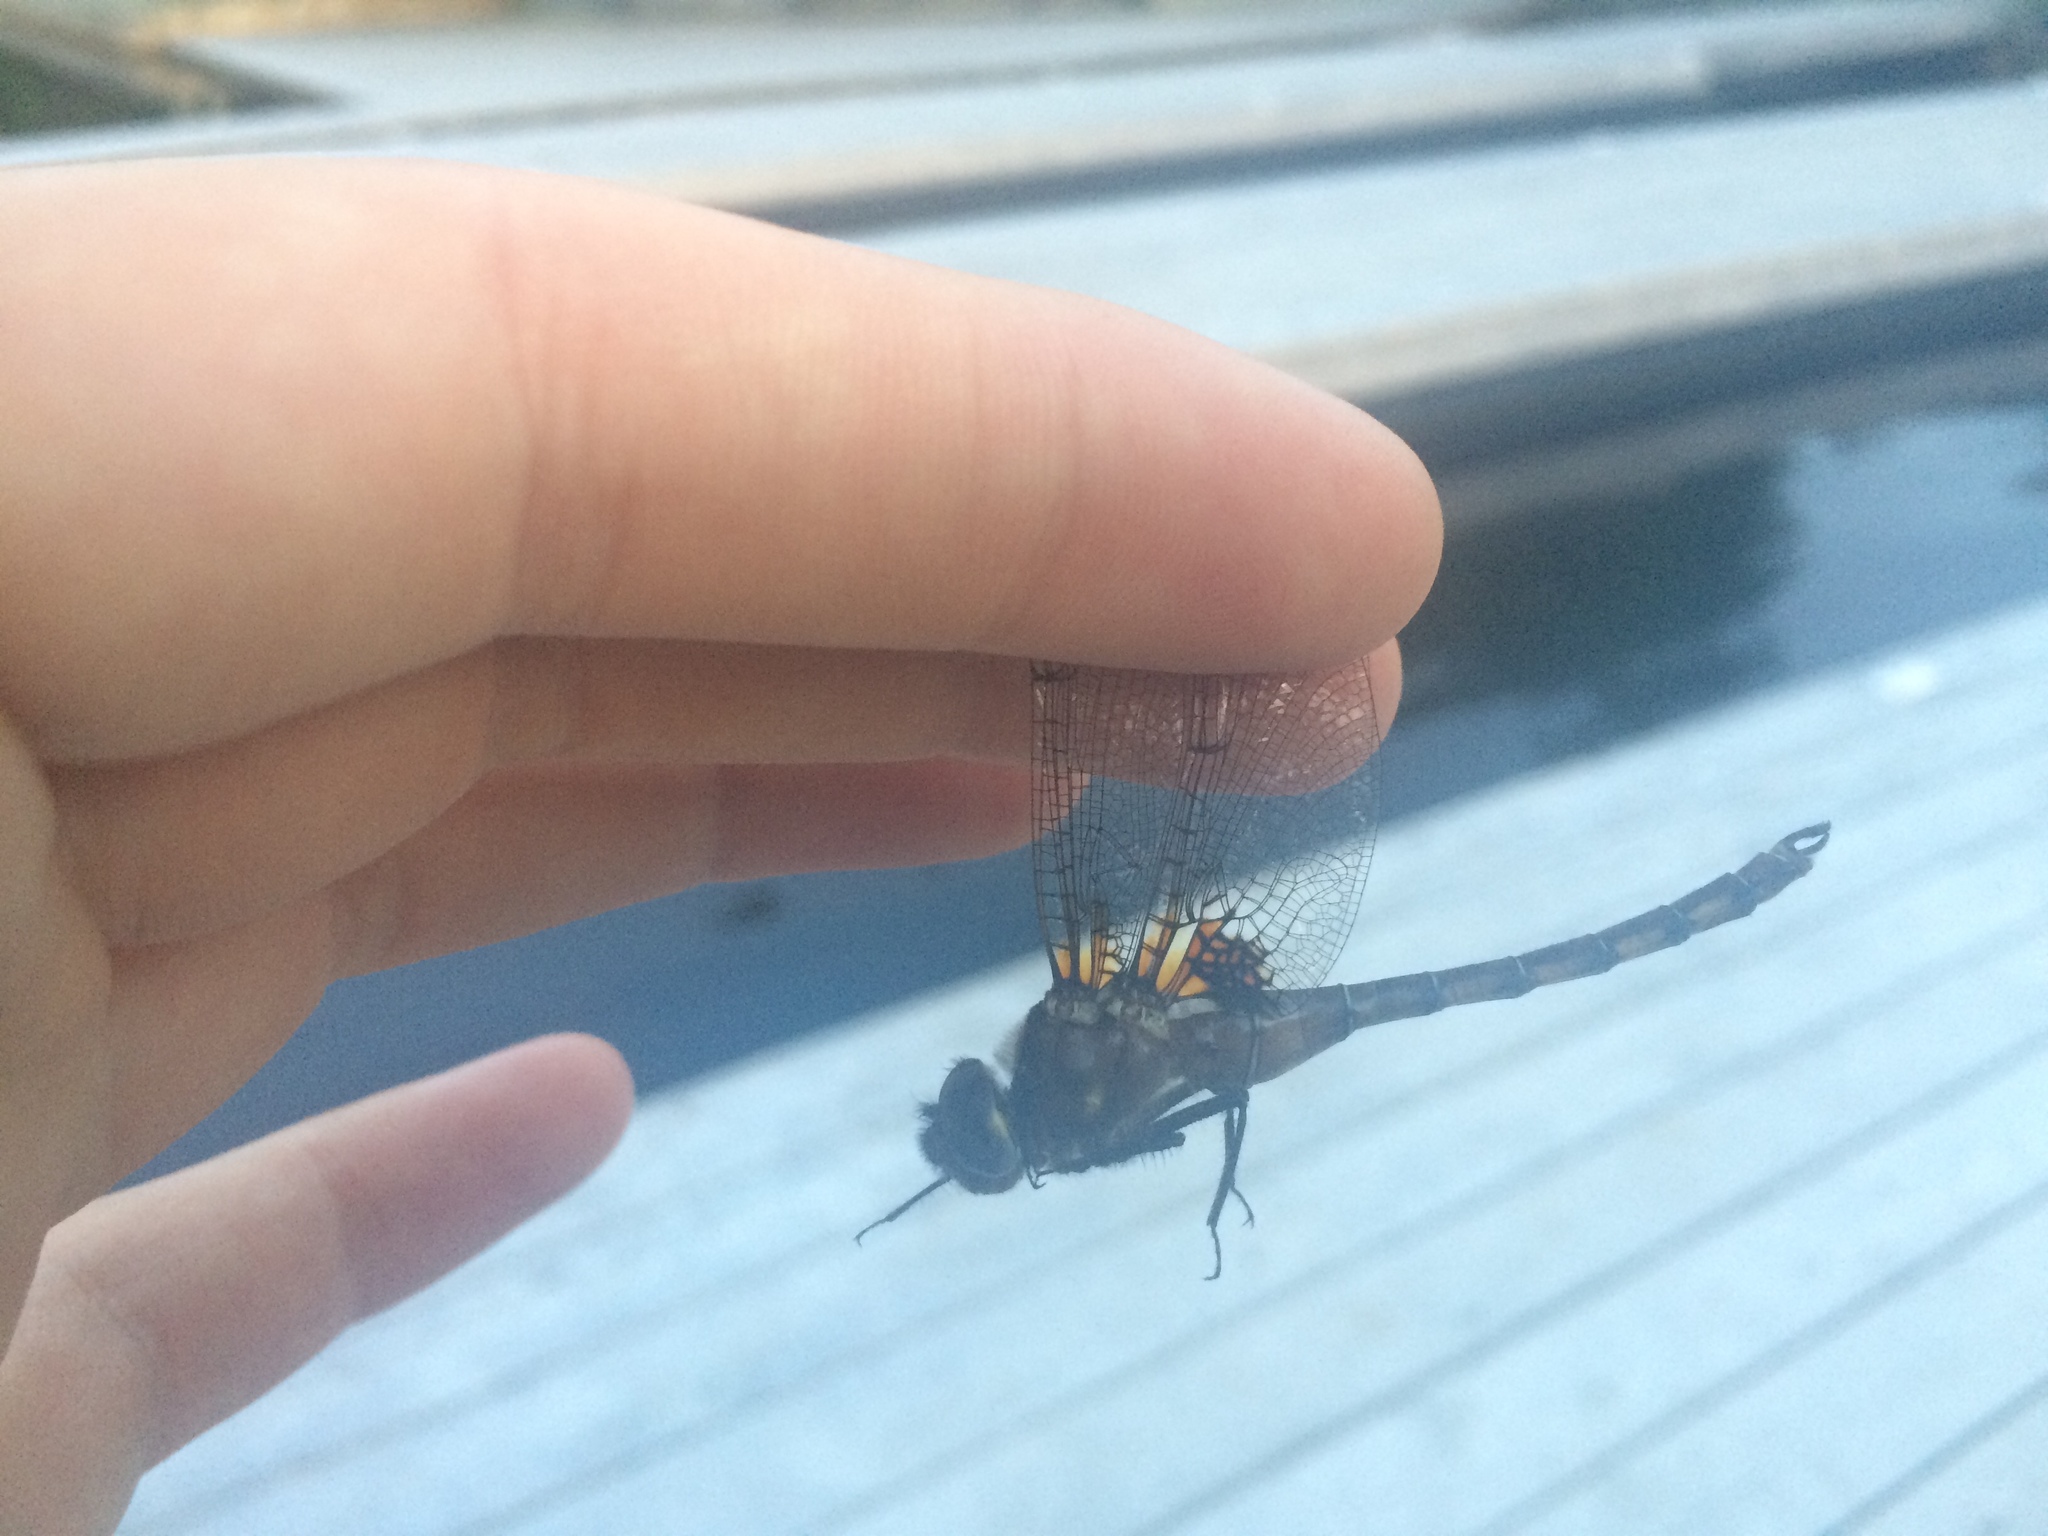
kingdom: Animalia
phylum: Arthropoda
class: Insecta
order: Odonata
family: Corduliidae
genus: Neurocordulia
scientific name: Neurocordulia yamaskanensis
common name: Stygian shadowdragon
